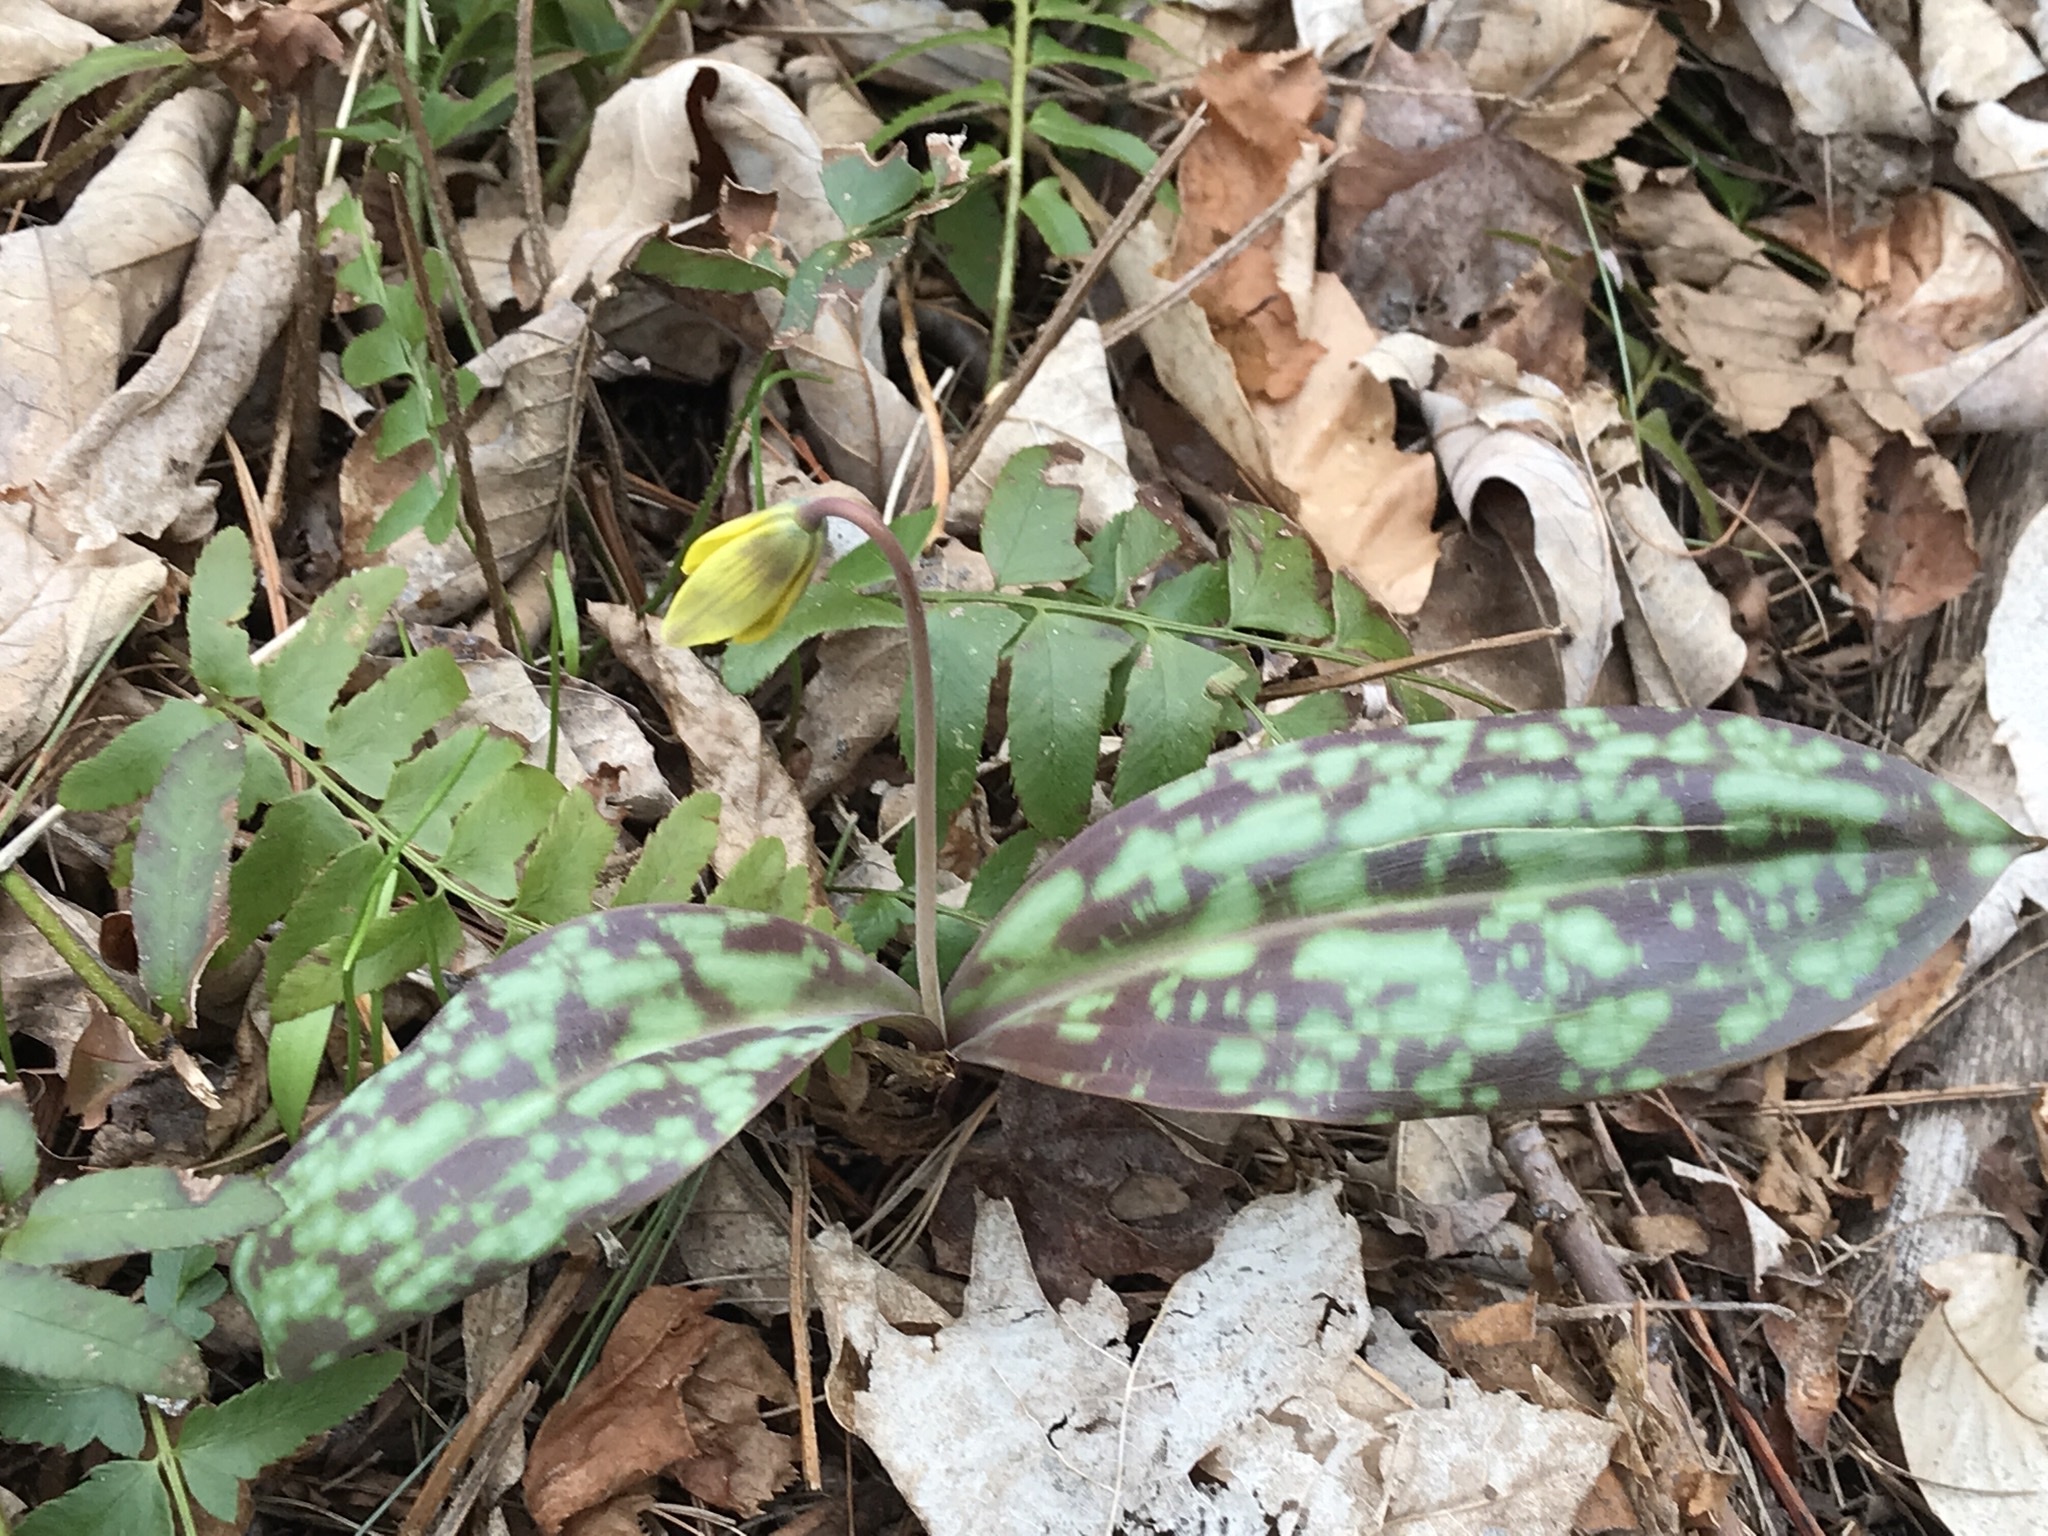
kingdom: Plantae
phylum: Tracheophyta
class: Liliopsida
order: Liliales
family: Liliaceae
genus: Erythronium
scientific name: Erythronium americanum
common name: Yellow adder's-tongue
